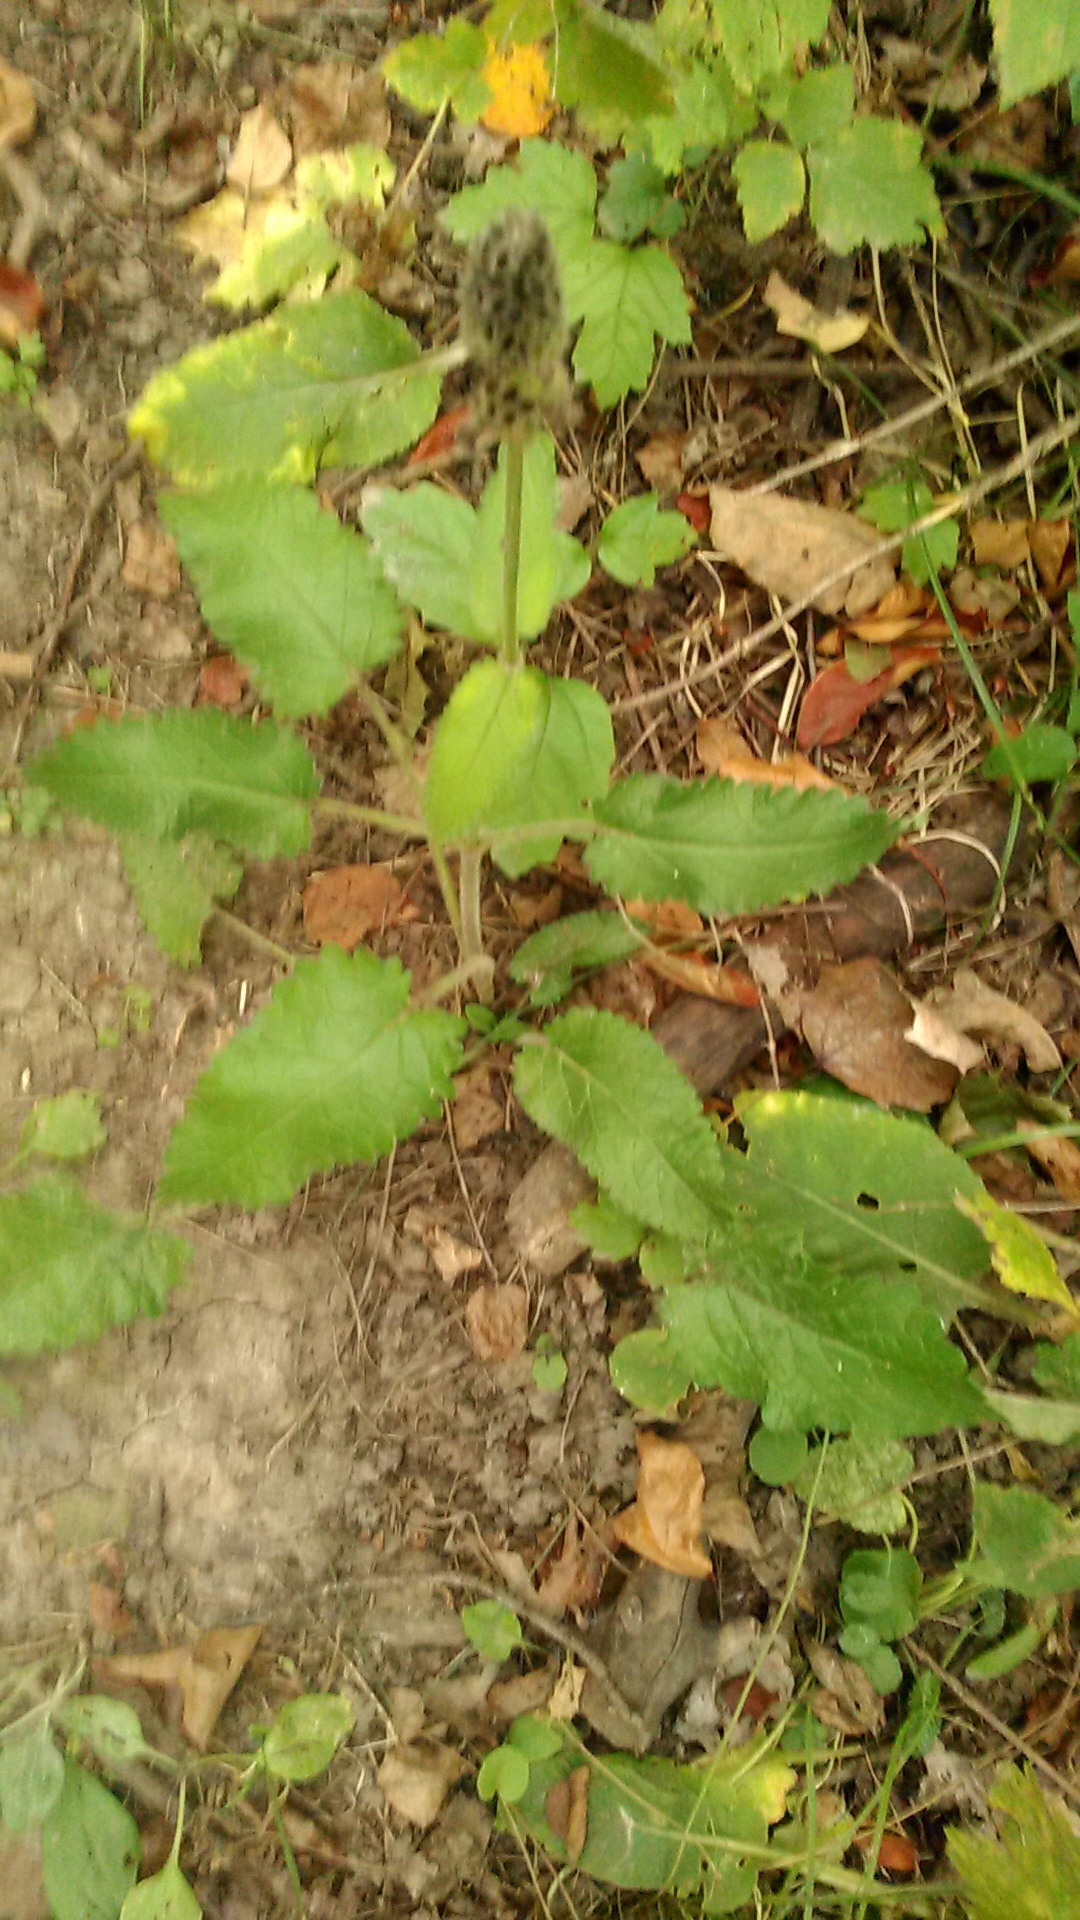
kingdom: Plantae
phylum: Tracheophyta
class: Magnoliopsida
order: Lamiales
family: Lamiaceae
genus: Betonica
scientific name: Betonica officinalis
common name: Bishop's-wort
